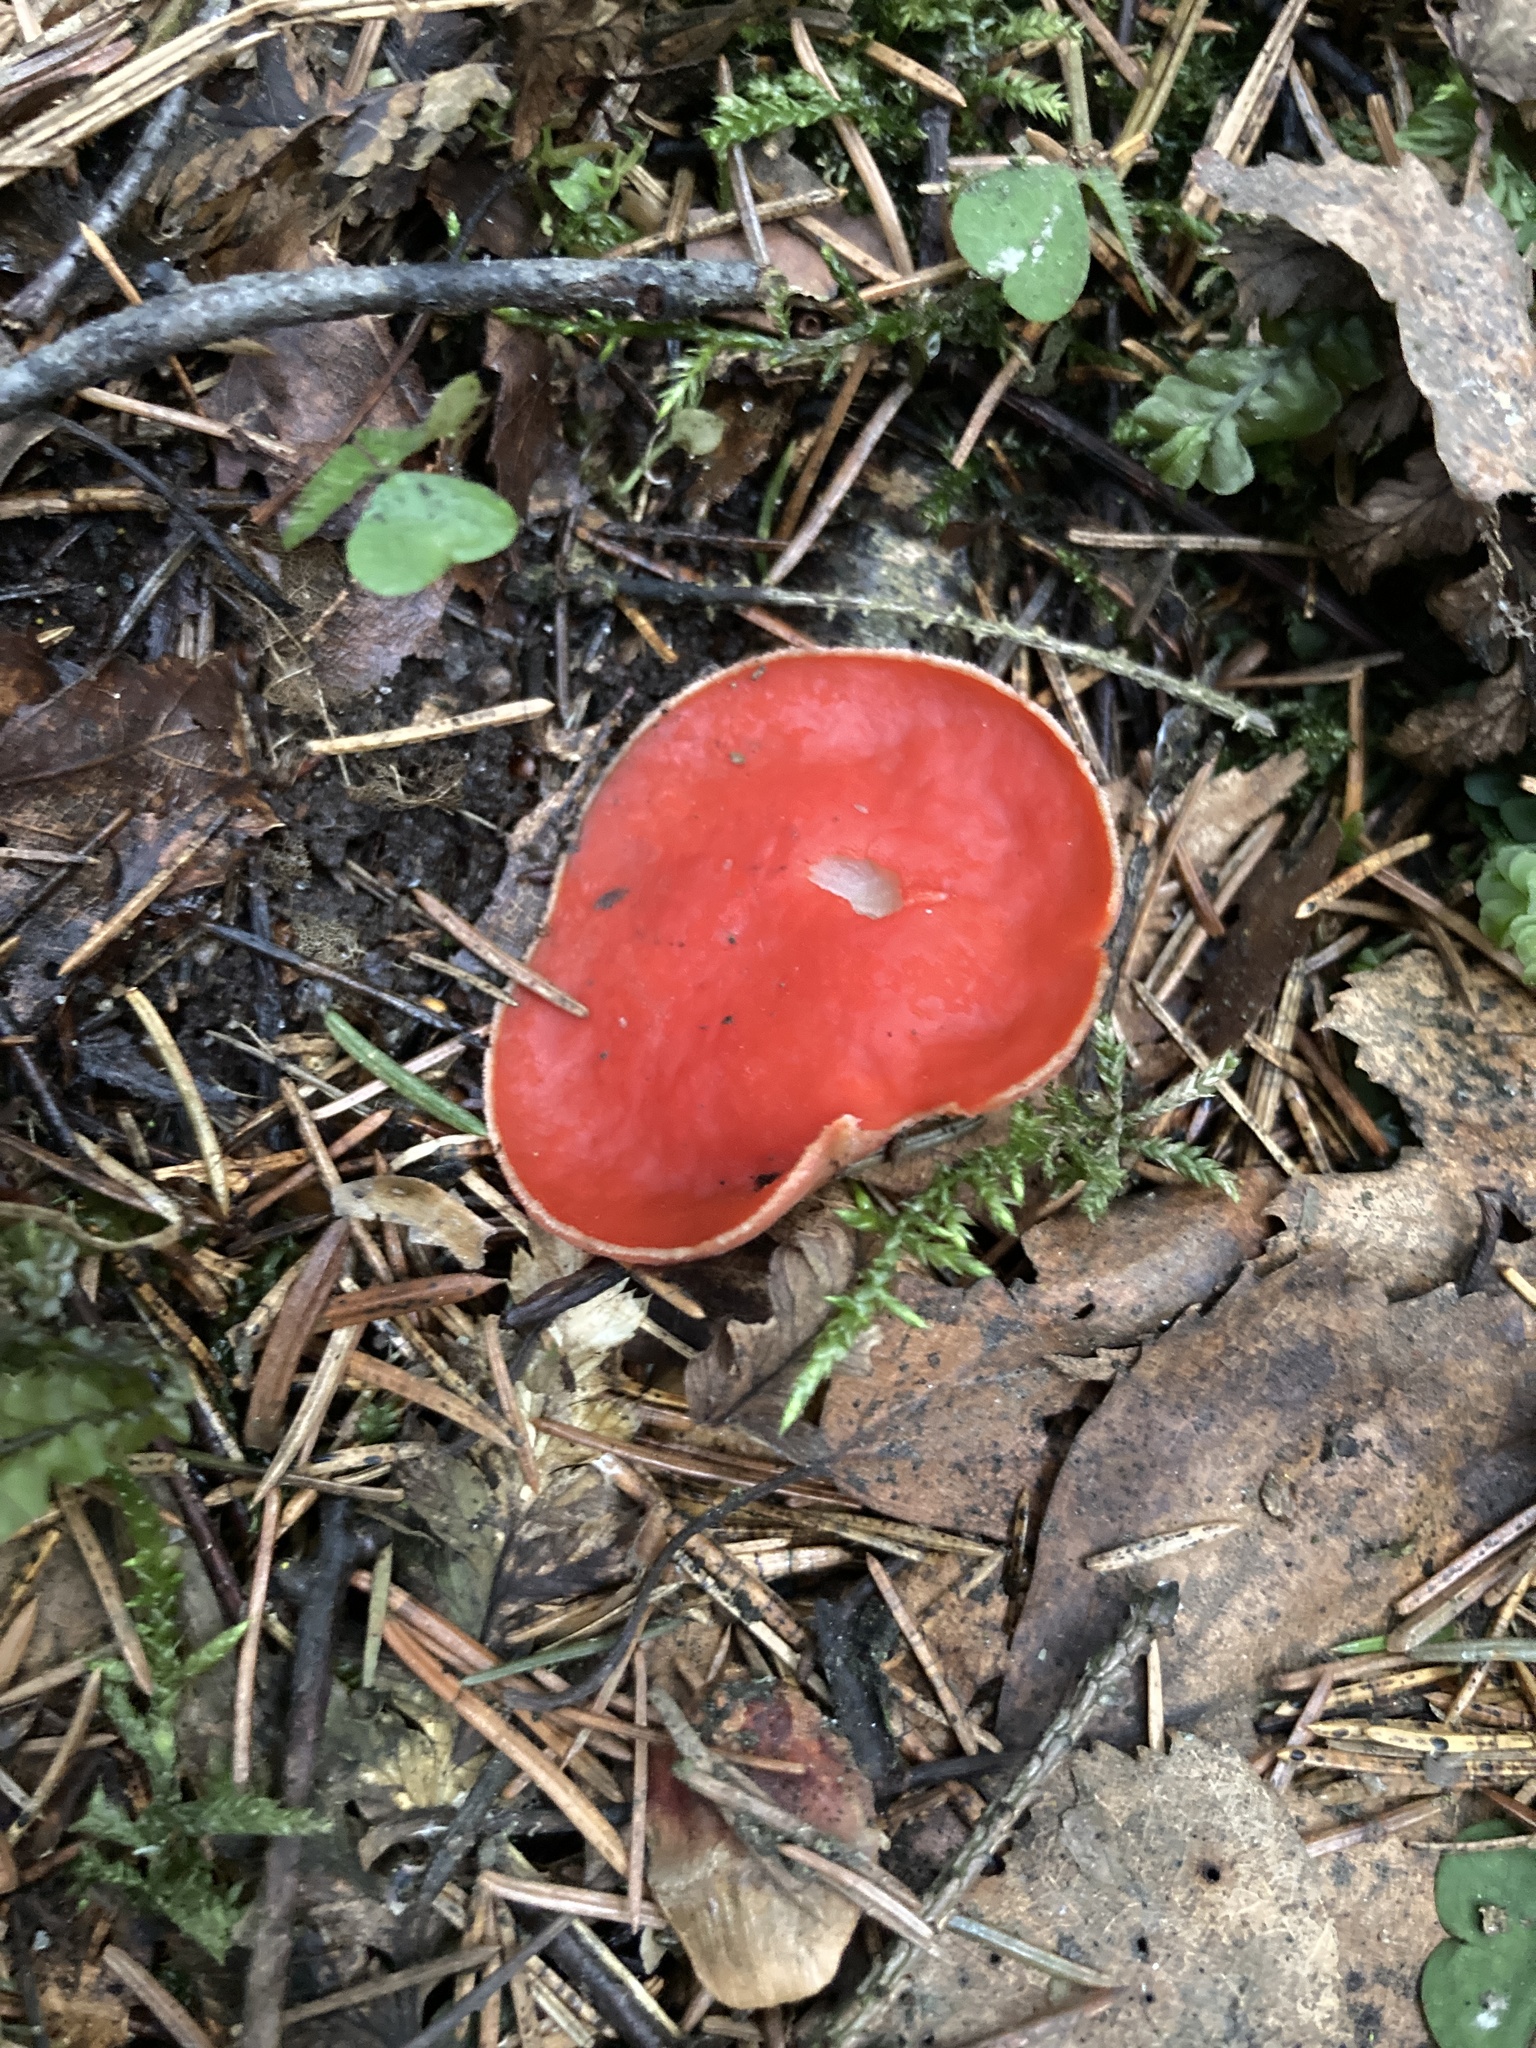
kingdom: Fungi
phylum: Ascomycota
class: Pezizomycetes
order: Pezizales
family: Sarcoscyphaceae
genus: Sarcoscypha
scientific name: Sarcoscypha austriaca
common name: Scarlet elfcup
